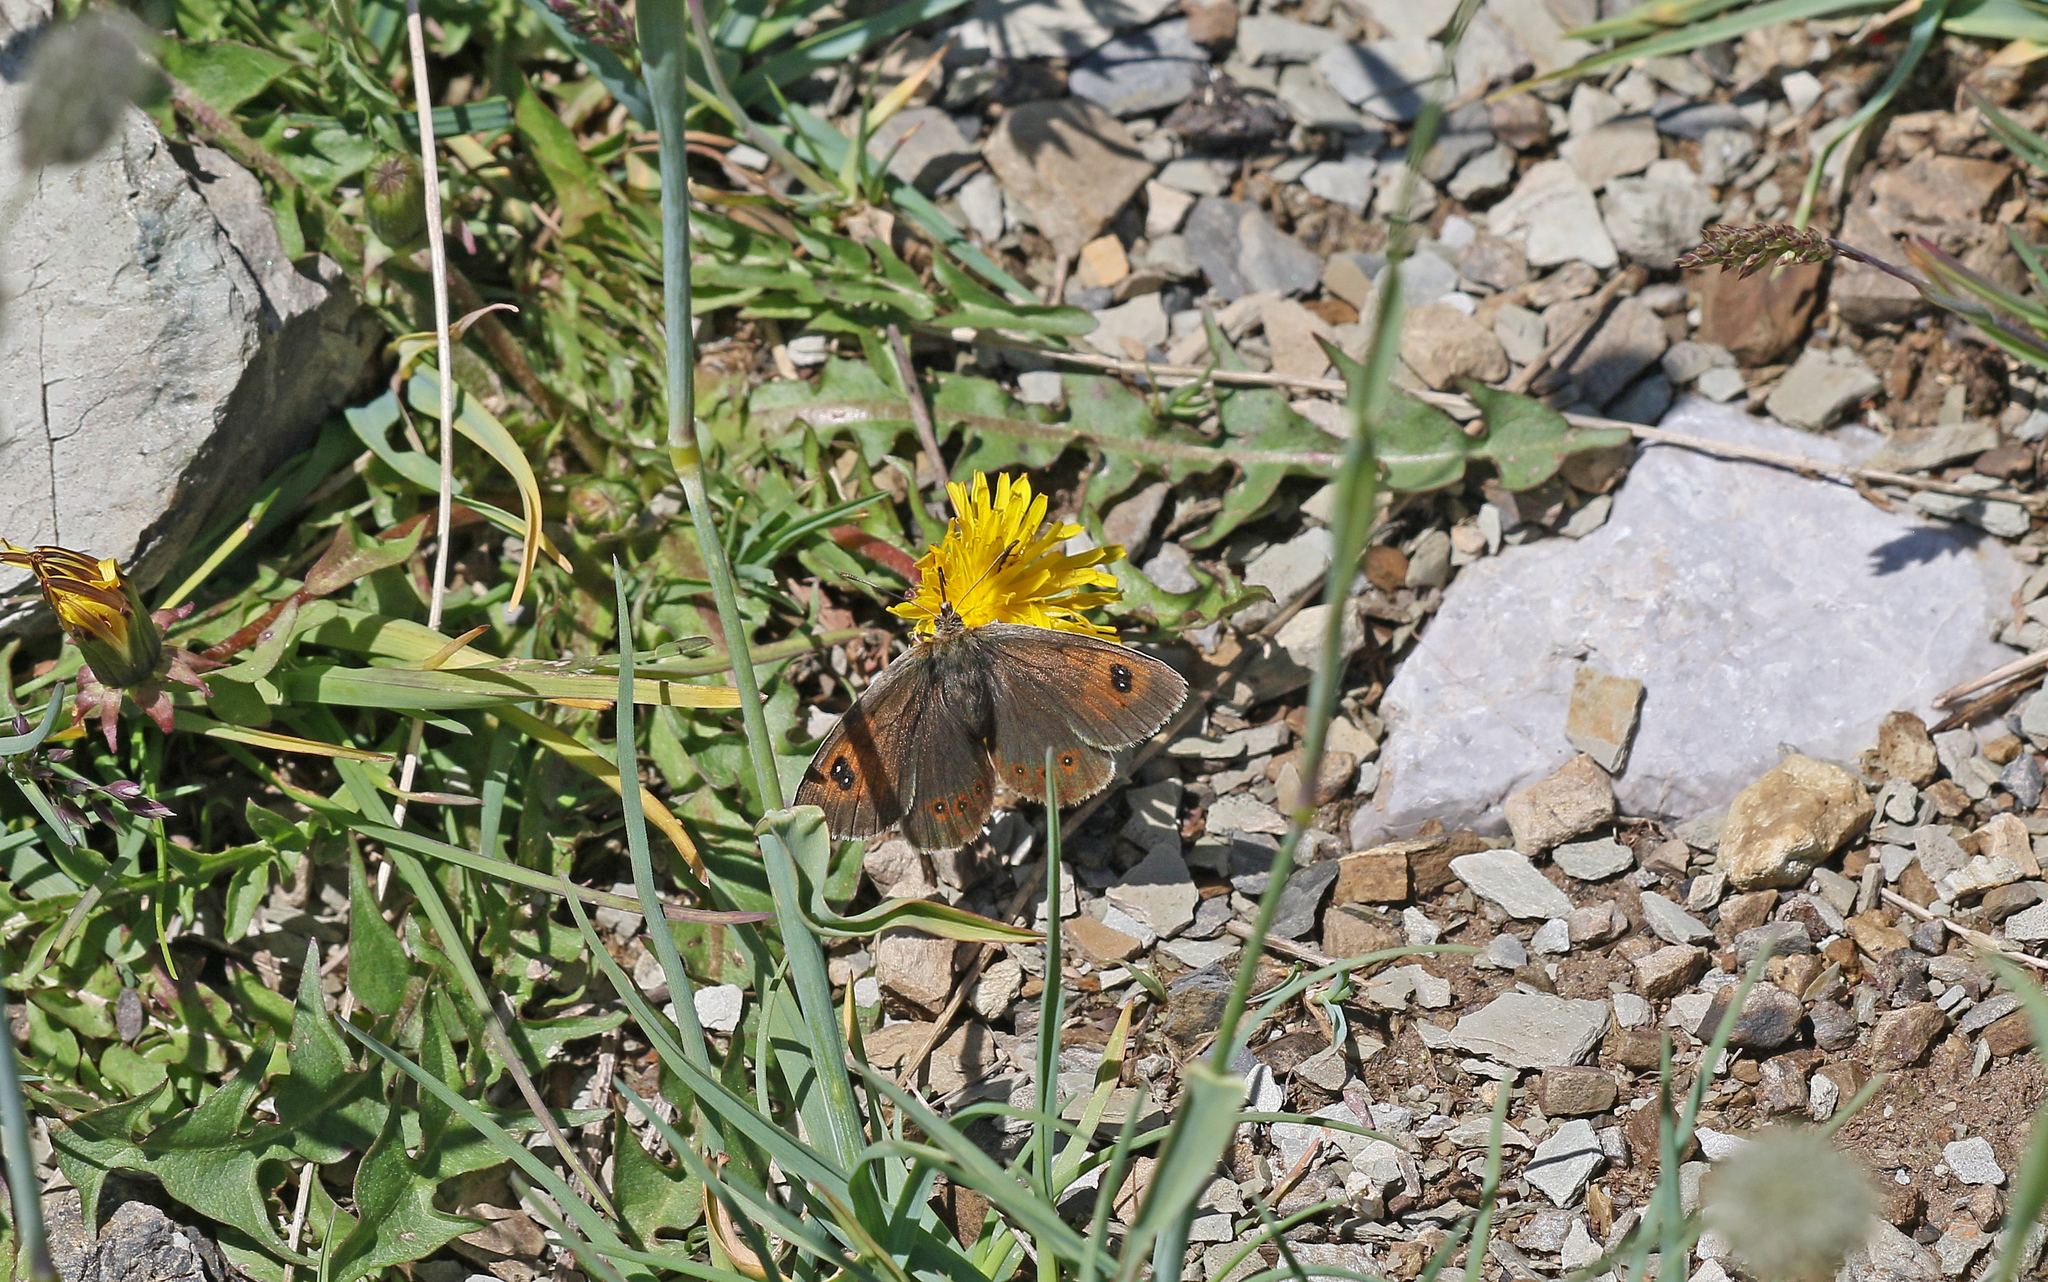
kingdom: Animalia
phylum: Arthropoda
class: Insecta
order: Lepidoptera
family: Nymphalidae
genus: Erebia
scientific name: Erebia cassioides
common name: Common brassy ringlet
